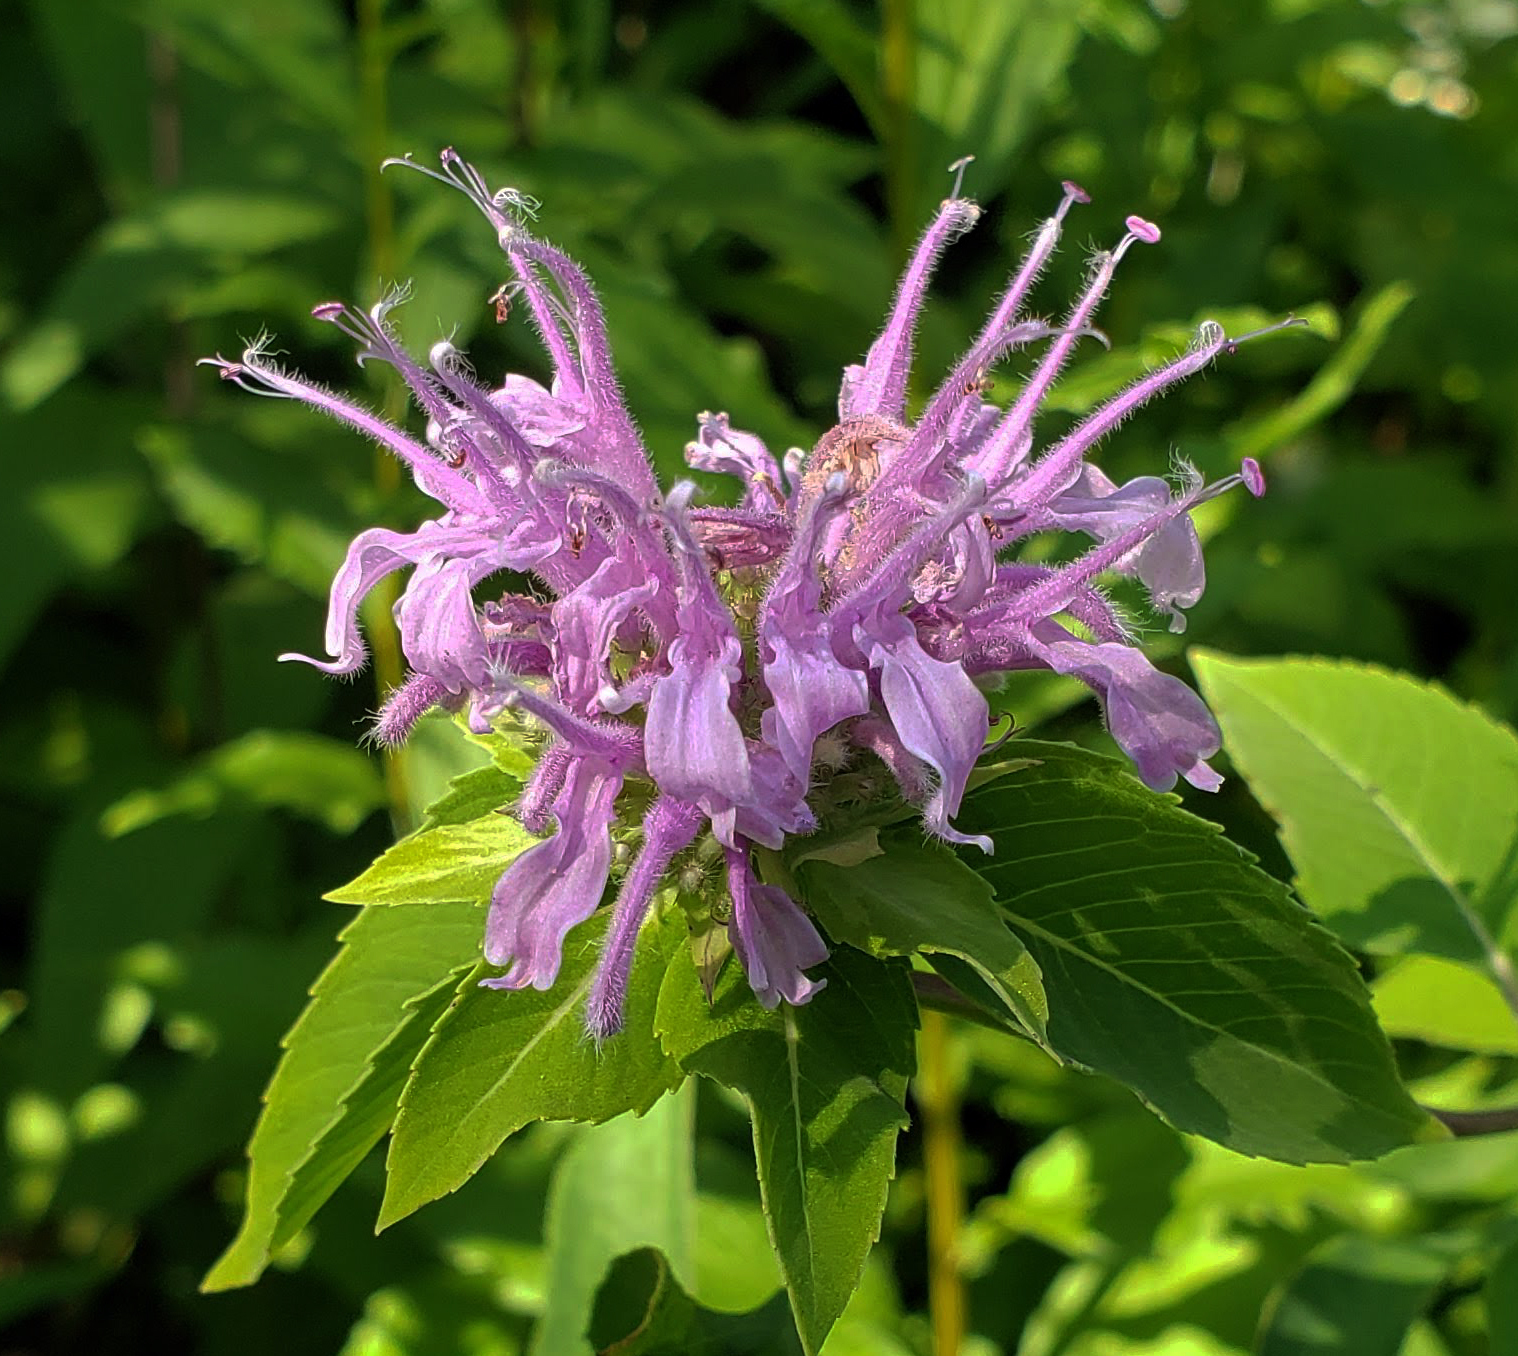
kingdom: Plantae
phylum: Tracheophyta
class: Magnoliopsida
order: Lamiales
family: Lamiaceae
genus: Monarda
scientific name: Monarda fistulosa
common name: Purple beebalm
